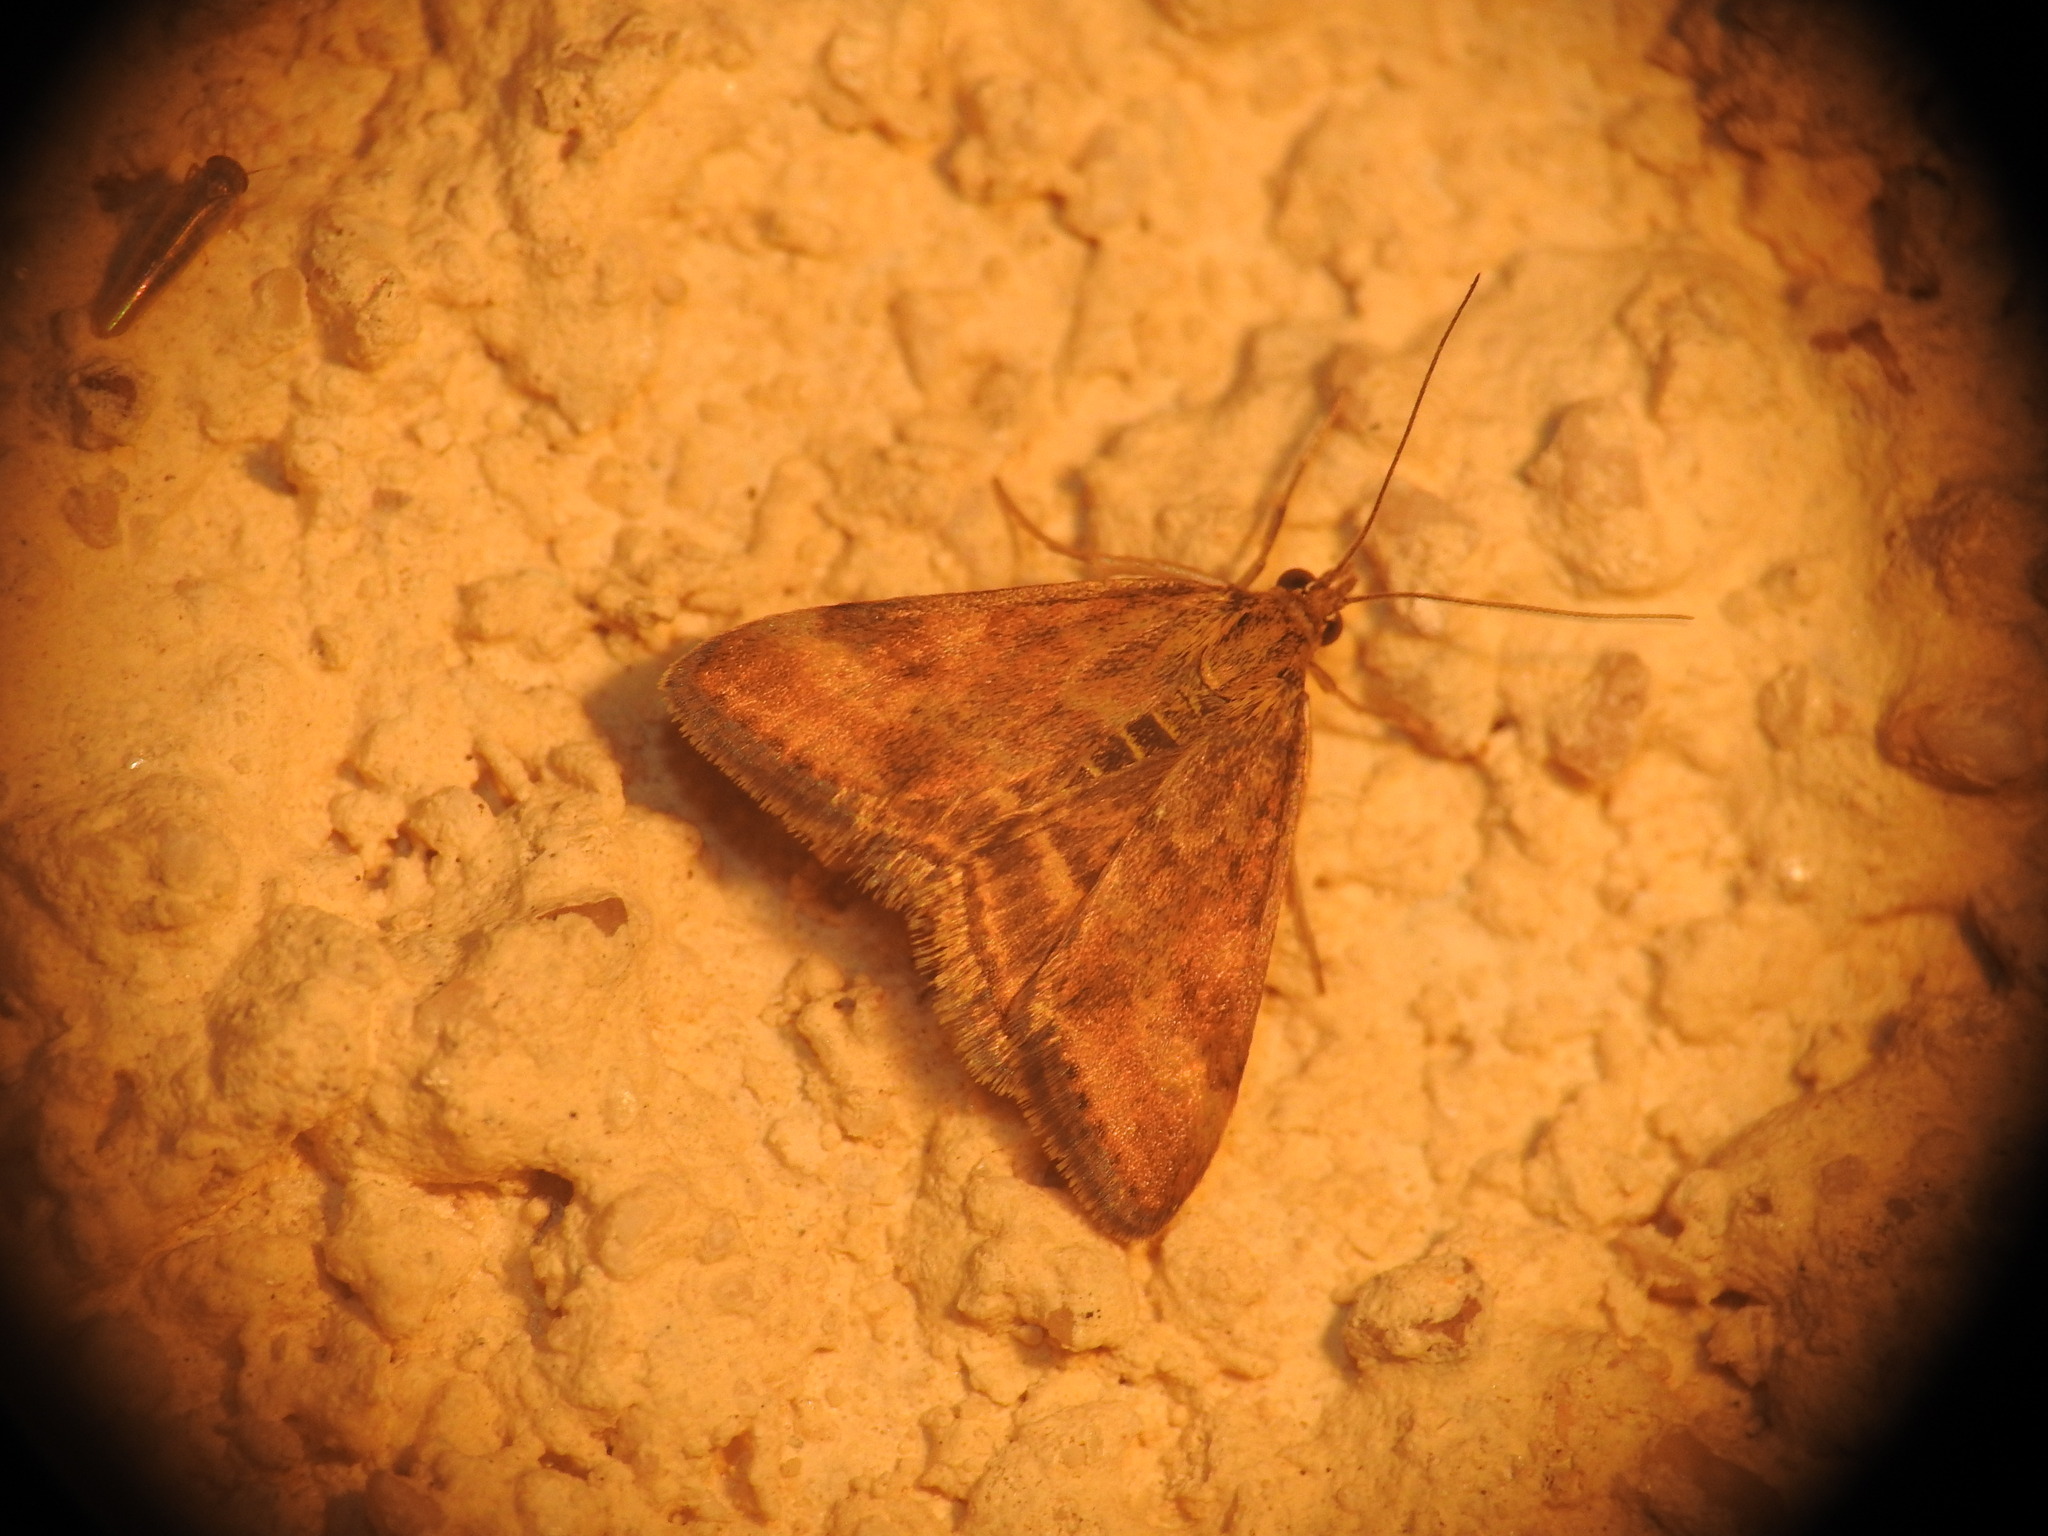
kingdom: Animalia
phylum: Arthropoda
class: Insecta
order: Lepidoptera
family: Crambidae
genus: Pyrausta
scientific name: Pyrausta despicata
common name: Straw-barred pearl
